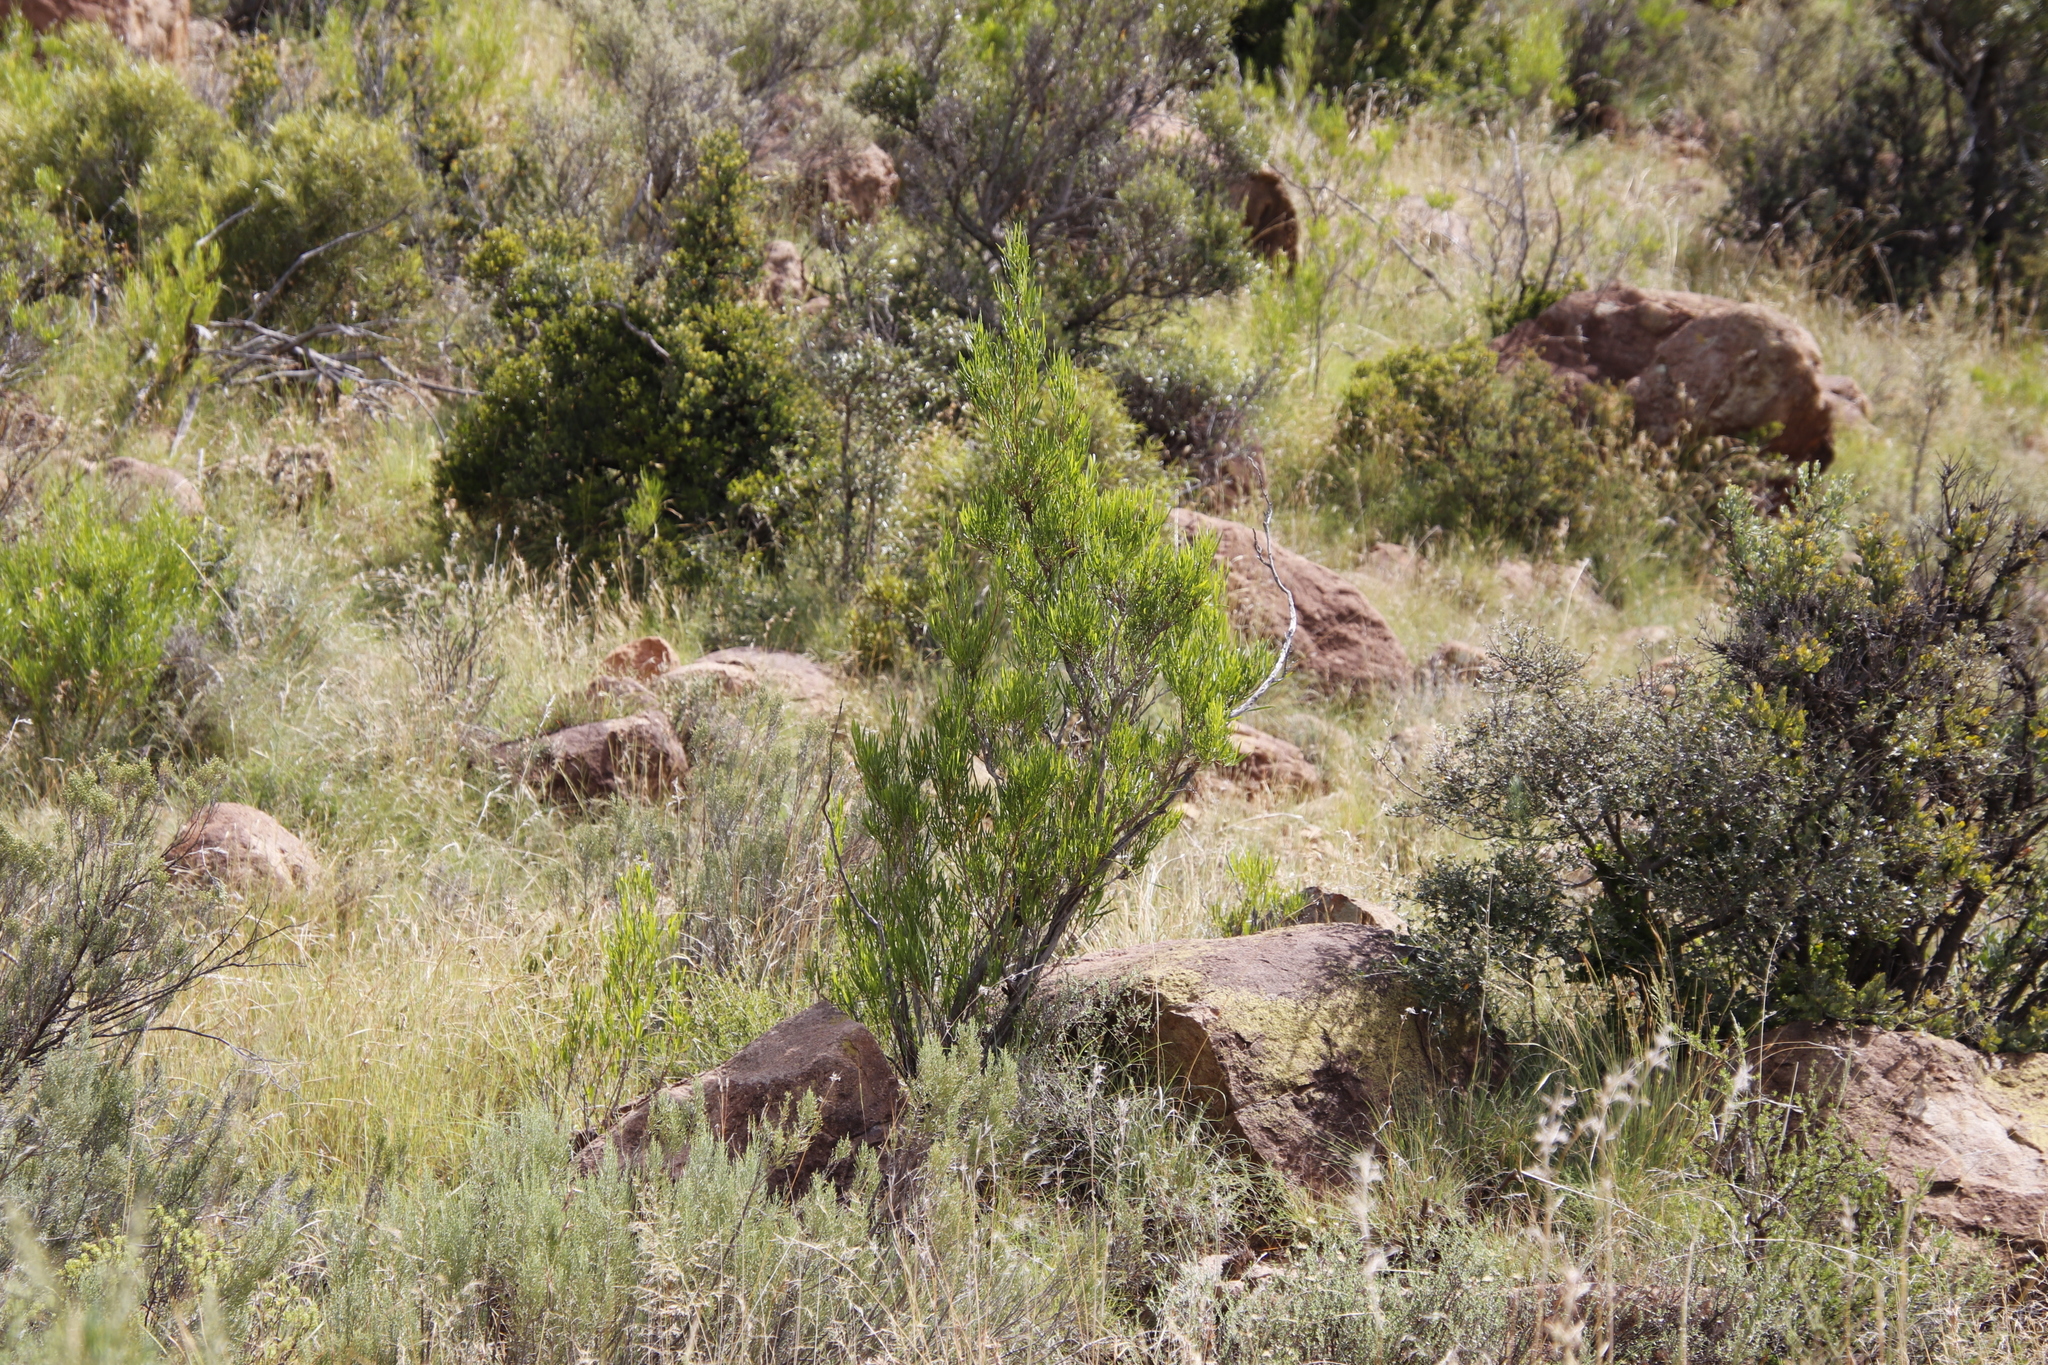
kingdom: Plantae
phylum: Tracheophyta
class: Magnoliopsida
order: Sapindales
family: Sapindaceae
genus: Dodonaea
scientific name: Dodonaea viscosa
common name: Hopbush
